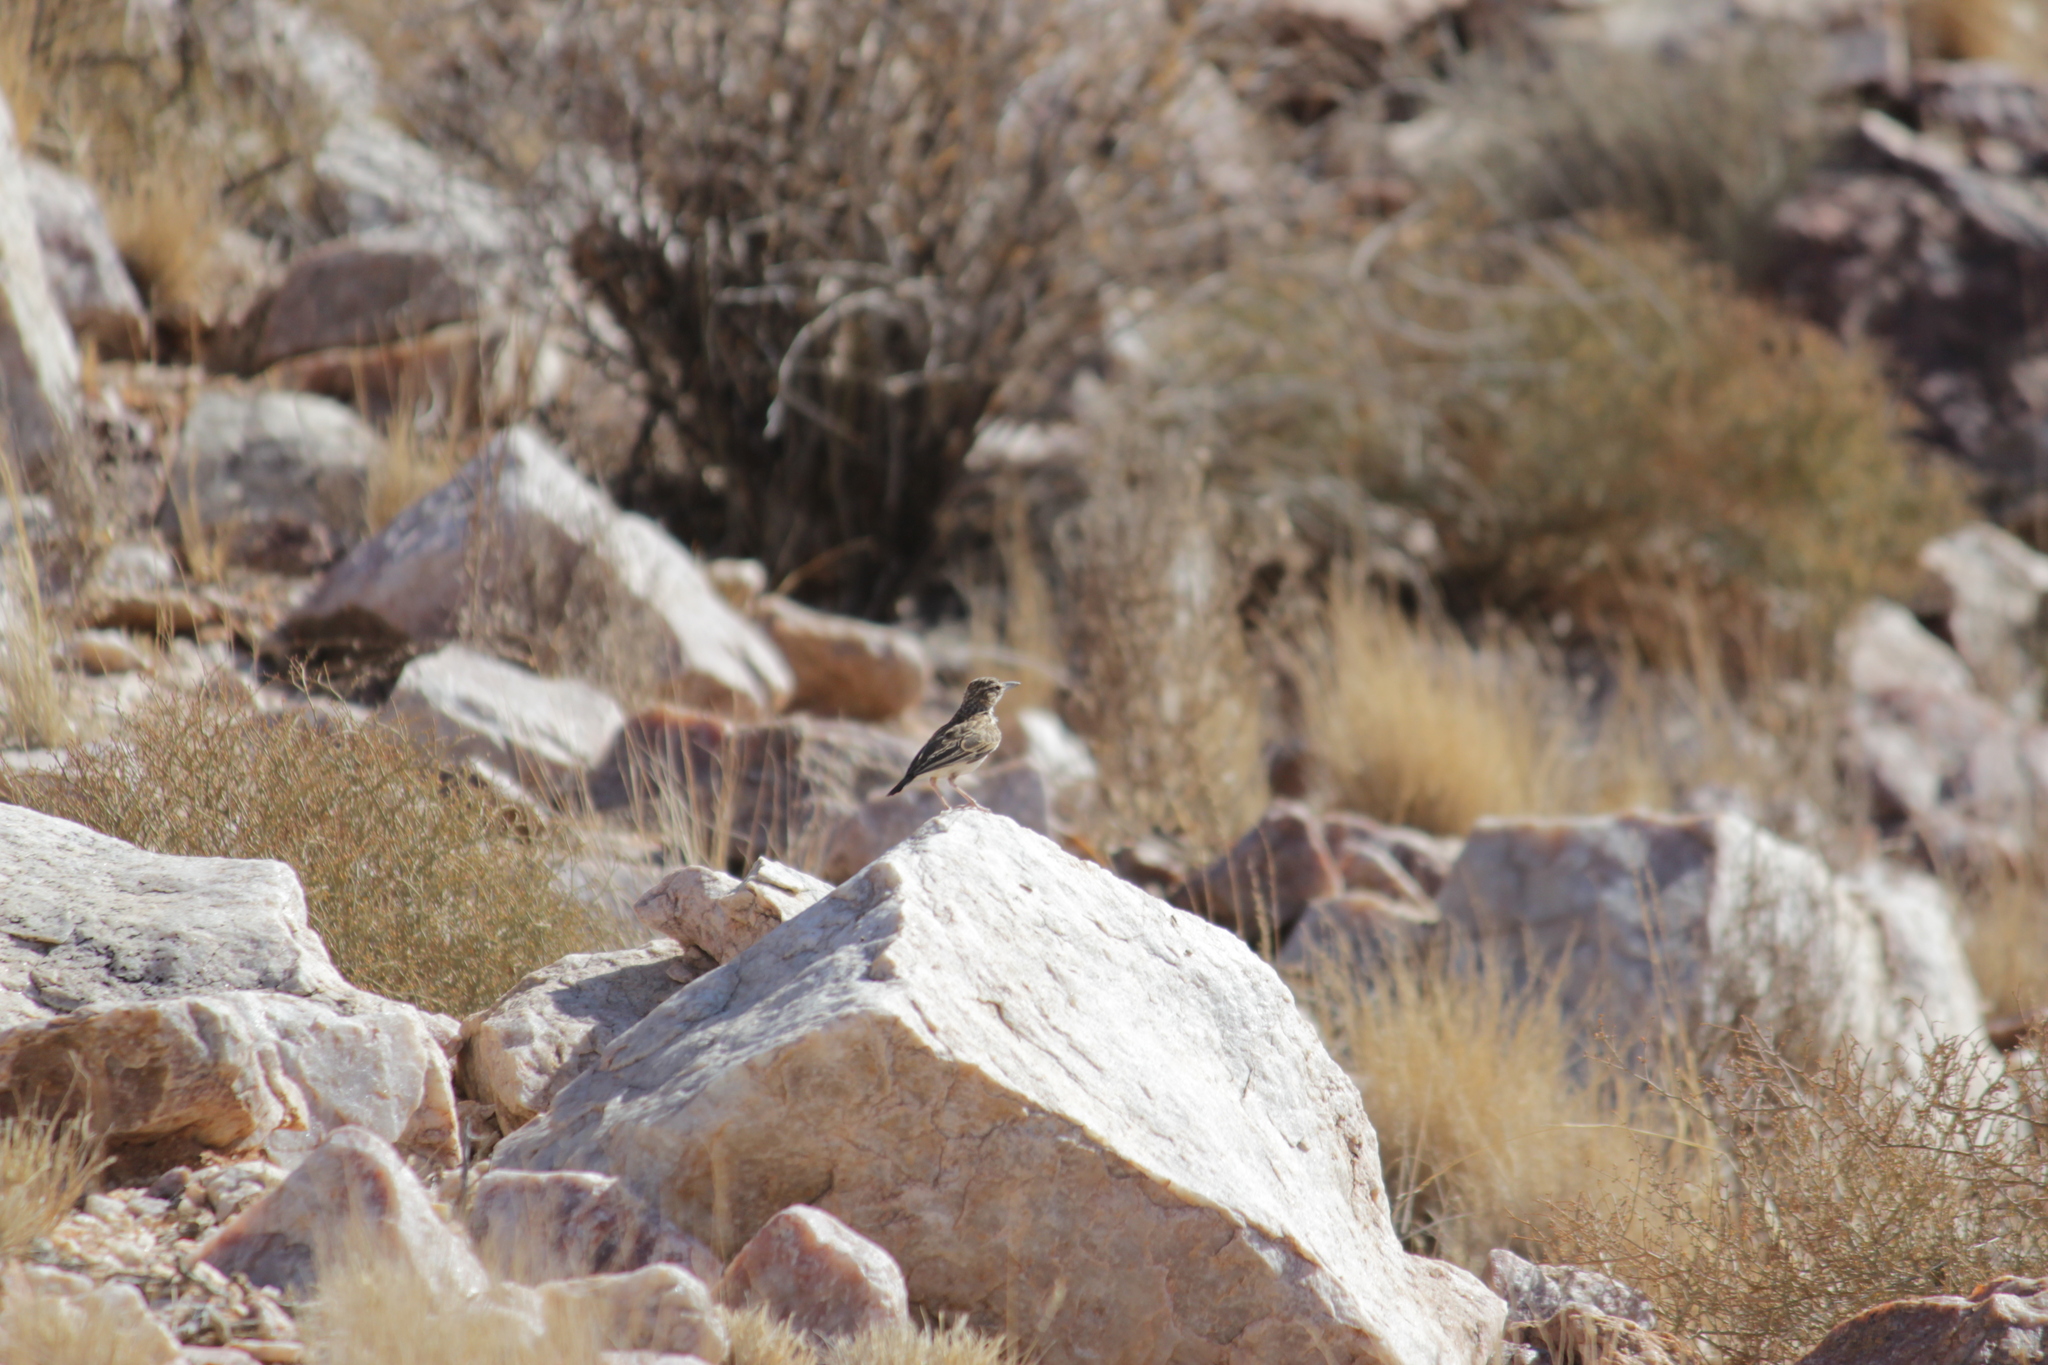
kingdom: Animalia
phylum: Chordata
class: Aves
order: Passeriformes
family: Alaudidae
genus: Calendulauda
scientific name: Calendulauda sabota
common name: Sabota lark
